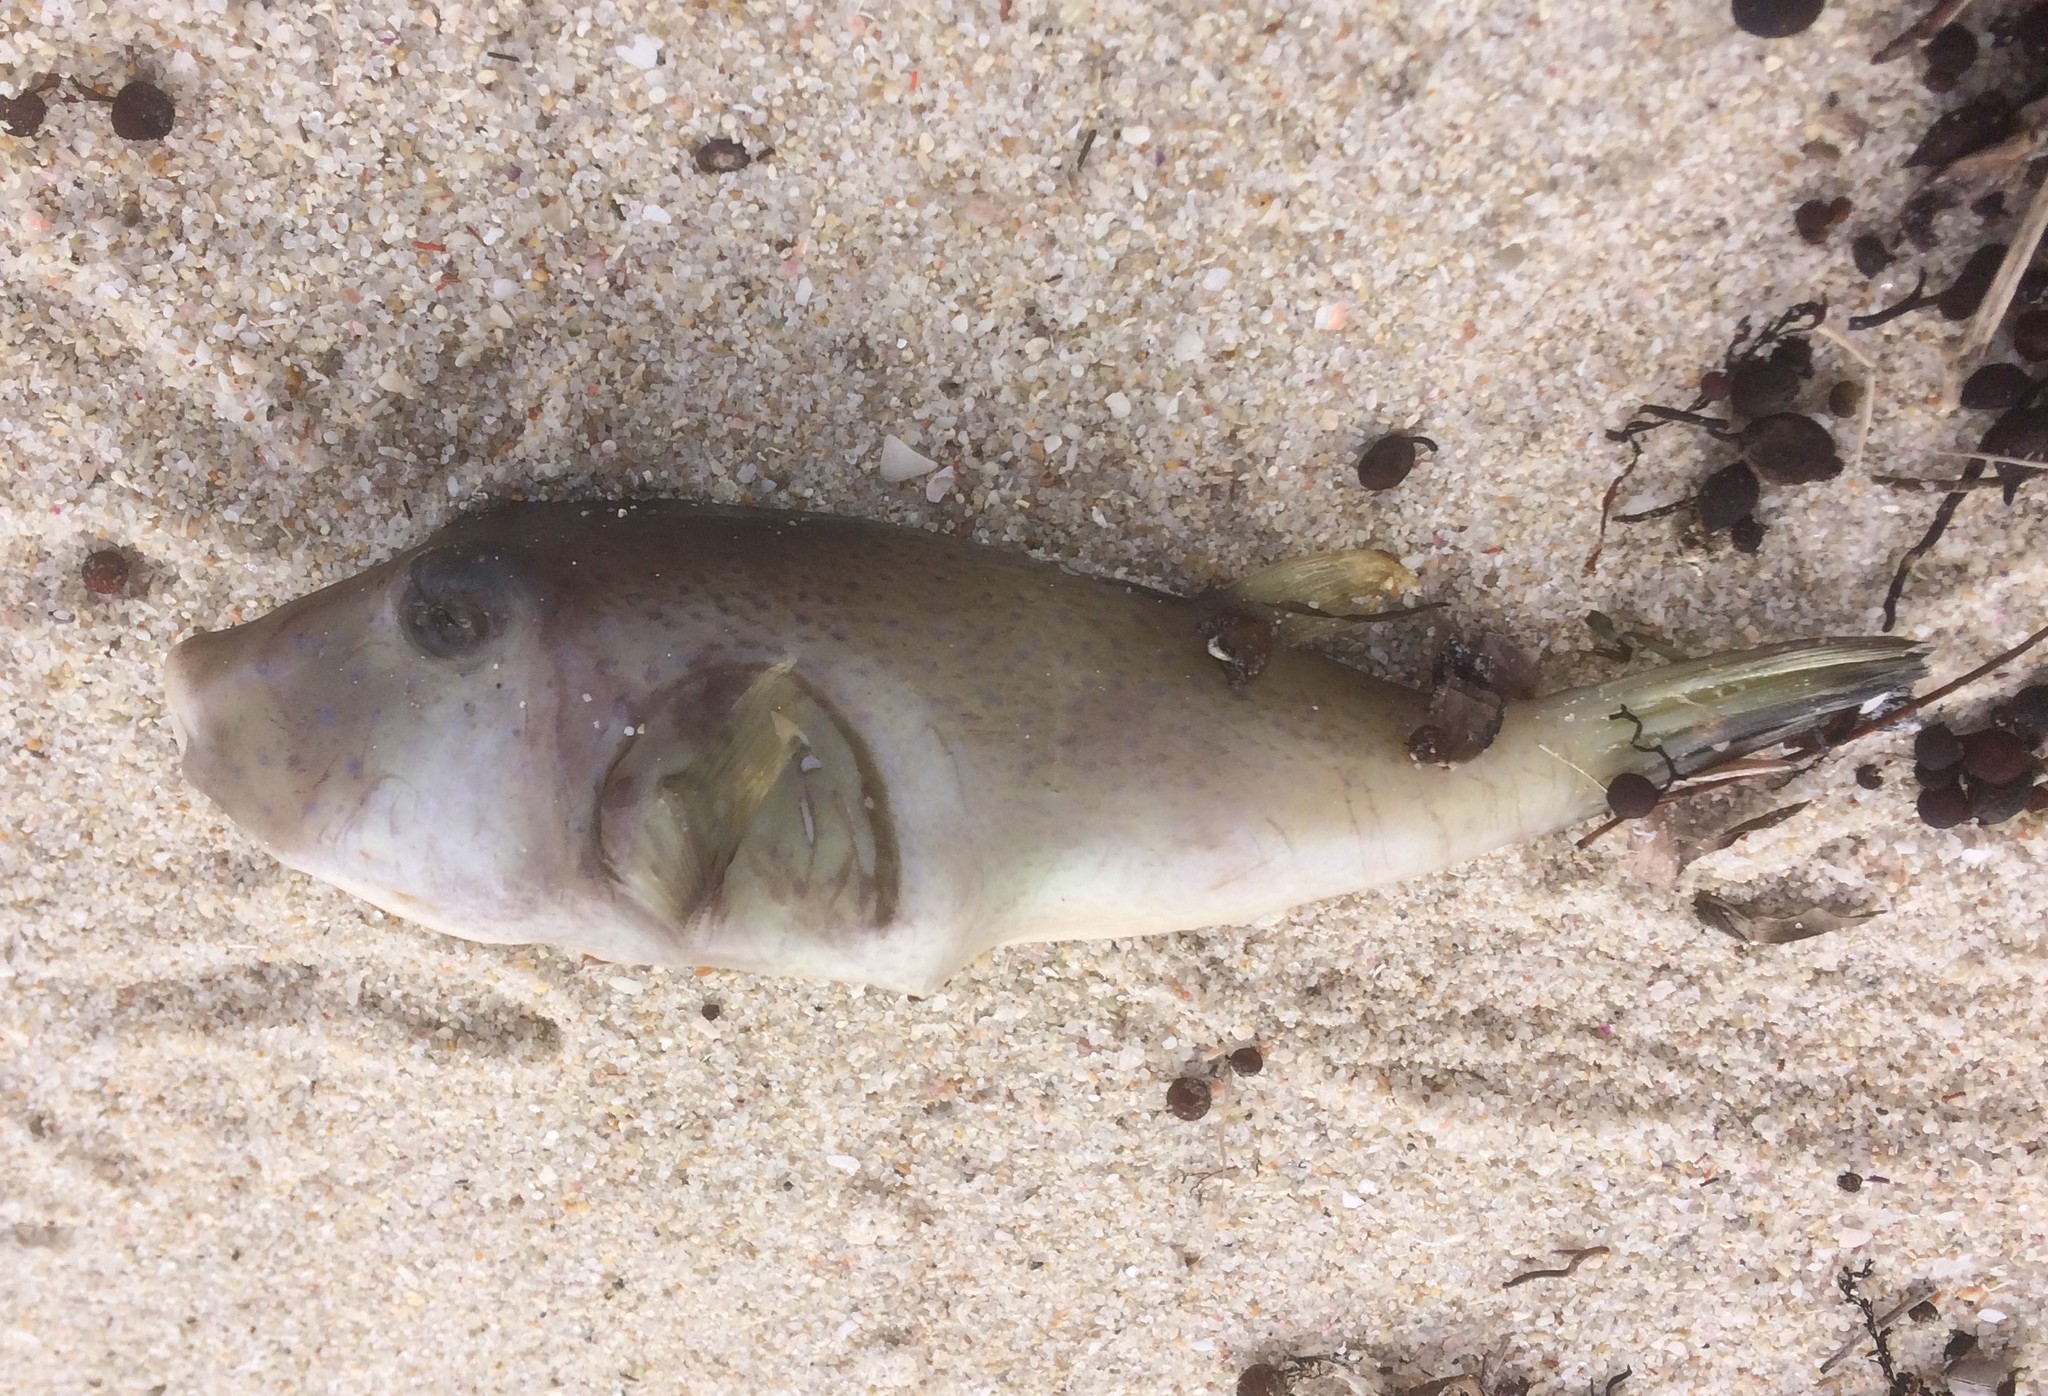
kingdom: Animalia
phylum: Chordata
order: Tetraodontiformes
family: Tetraodontidae
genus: Omegophora
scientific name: Omegophora armilla
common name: Ringed pufferfish
